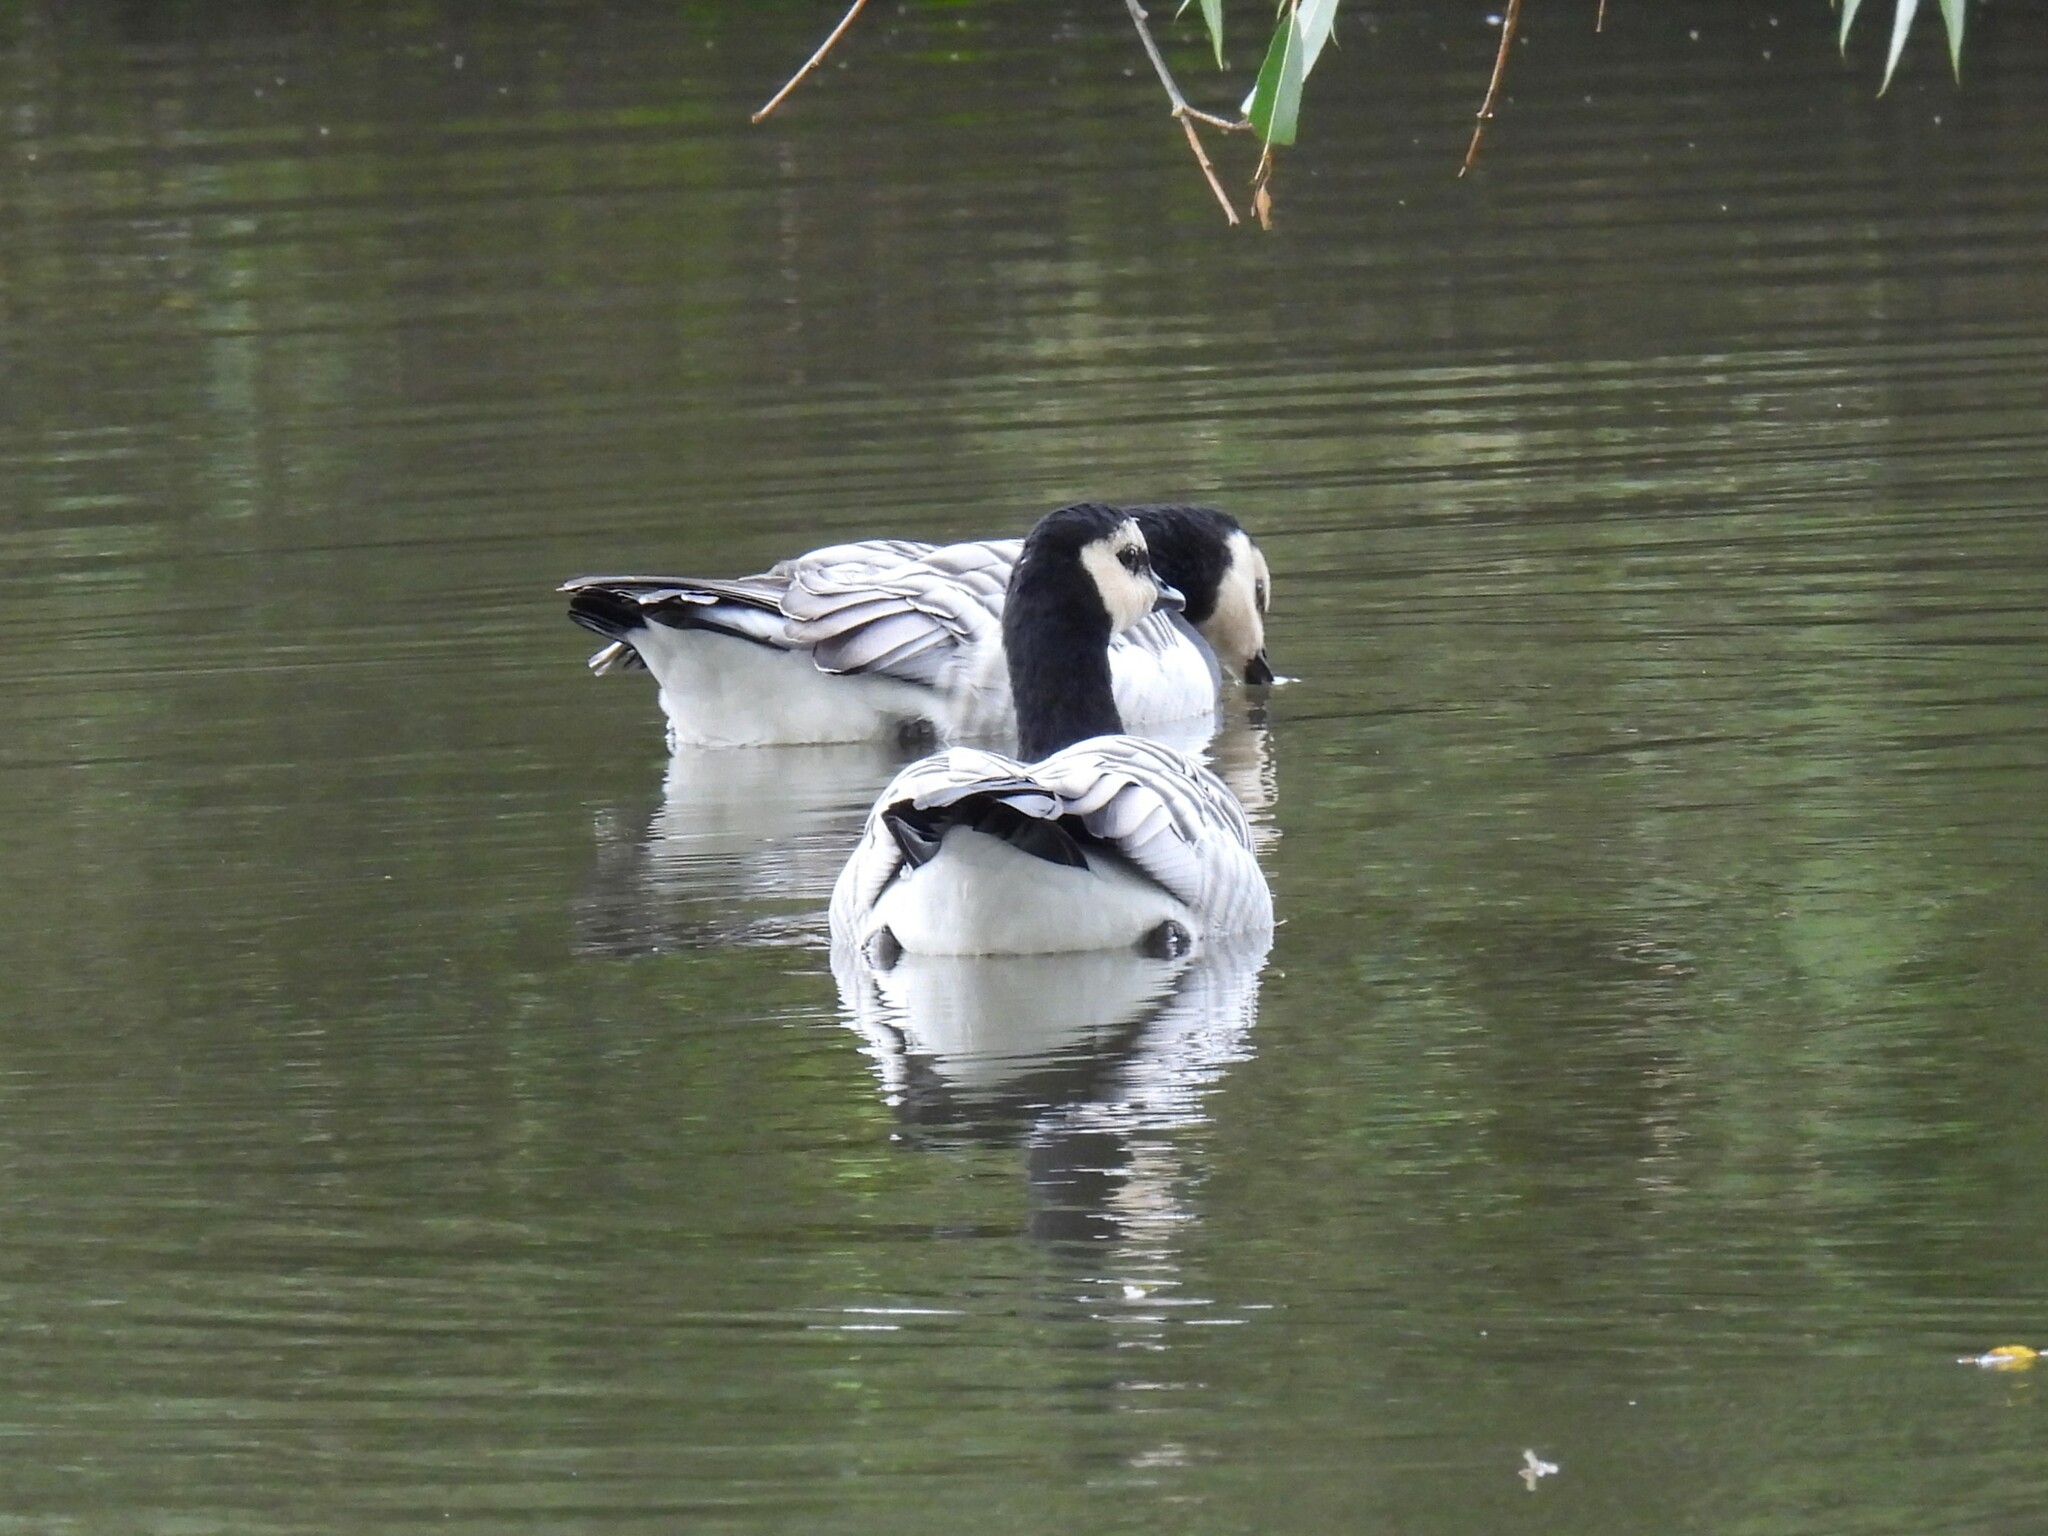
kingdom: Animalia
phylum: Chordata
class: Aves
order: Anseriformes
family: Anatidae
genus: Branta
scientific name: Branta leucopsis
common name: Barnacle goose
